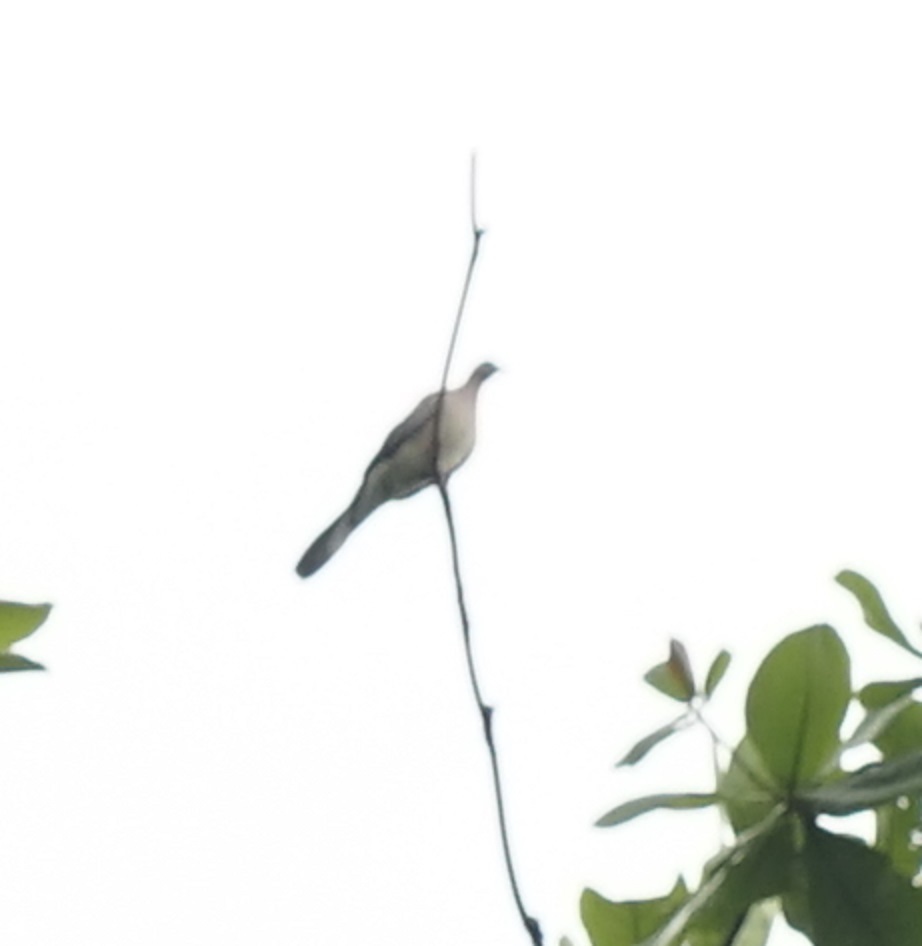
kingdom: Animalia
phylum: Chordata
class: Aves
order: Columbiformes
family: Columbidae
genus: Spilopelia
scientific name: Spilopelia chinensis
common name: Spotted dove
